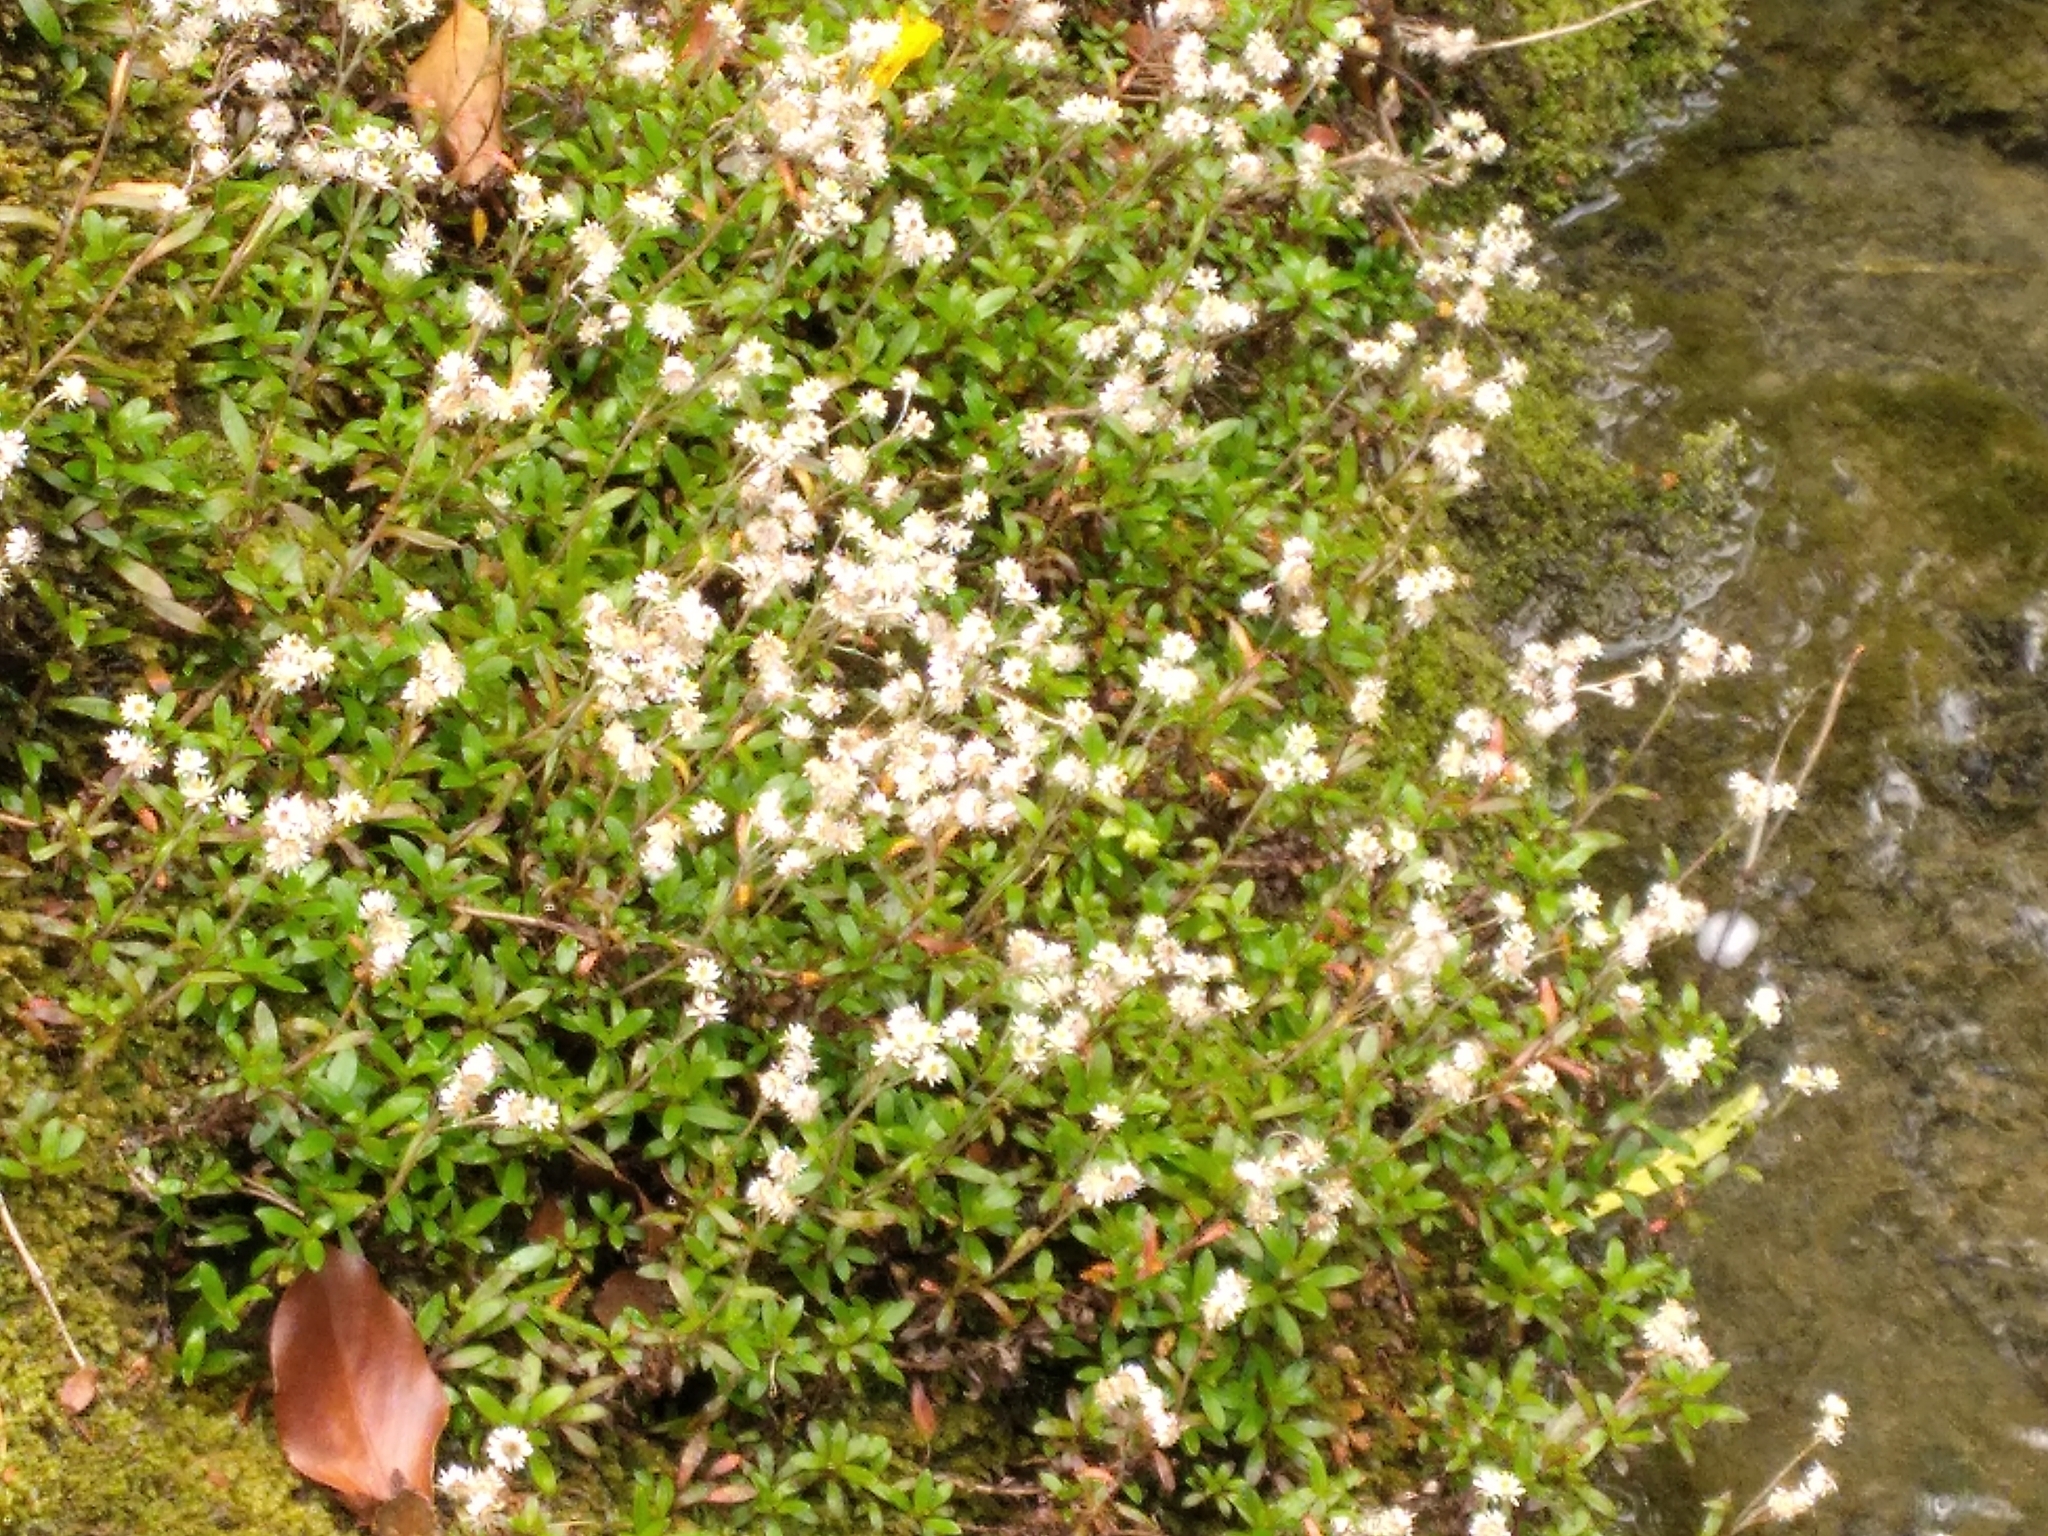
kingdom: Plantae
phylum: Tracheophyta
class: Magnoliopsida
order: Asterales
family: Asteraceae
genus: Anaphalioides
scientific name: Anaphalioides trinervis
